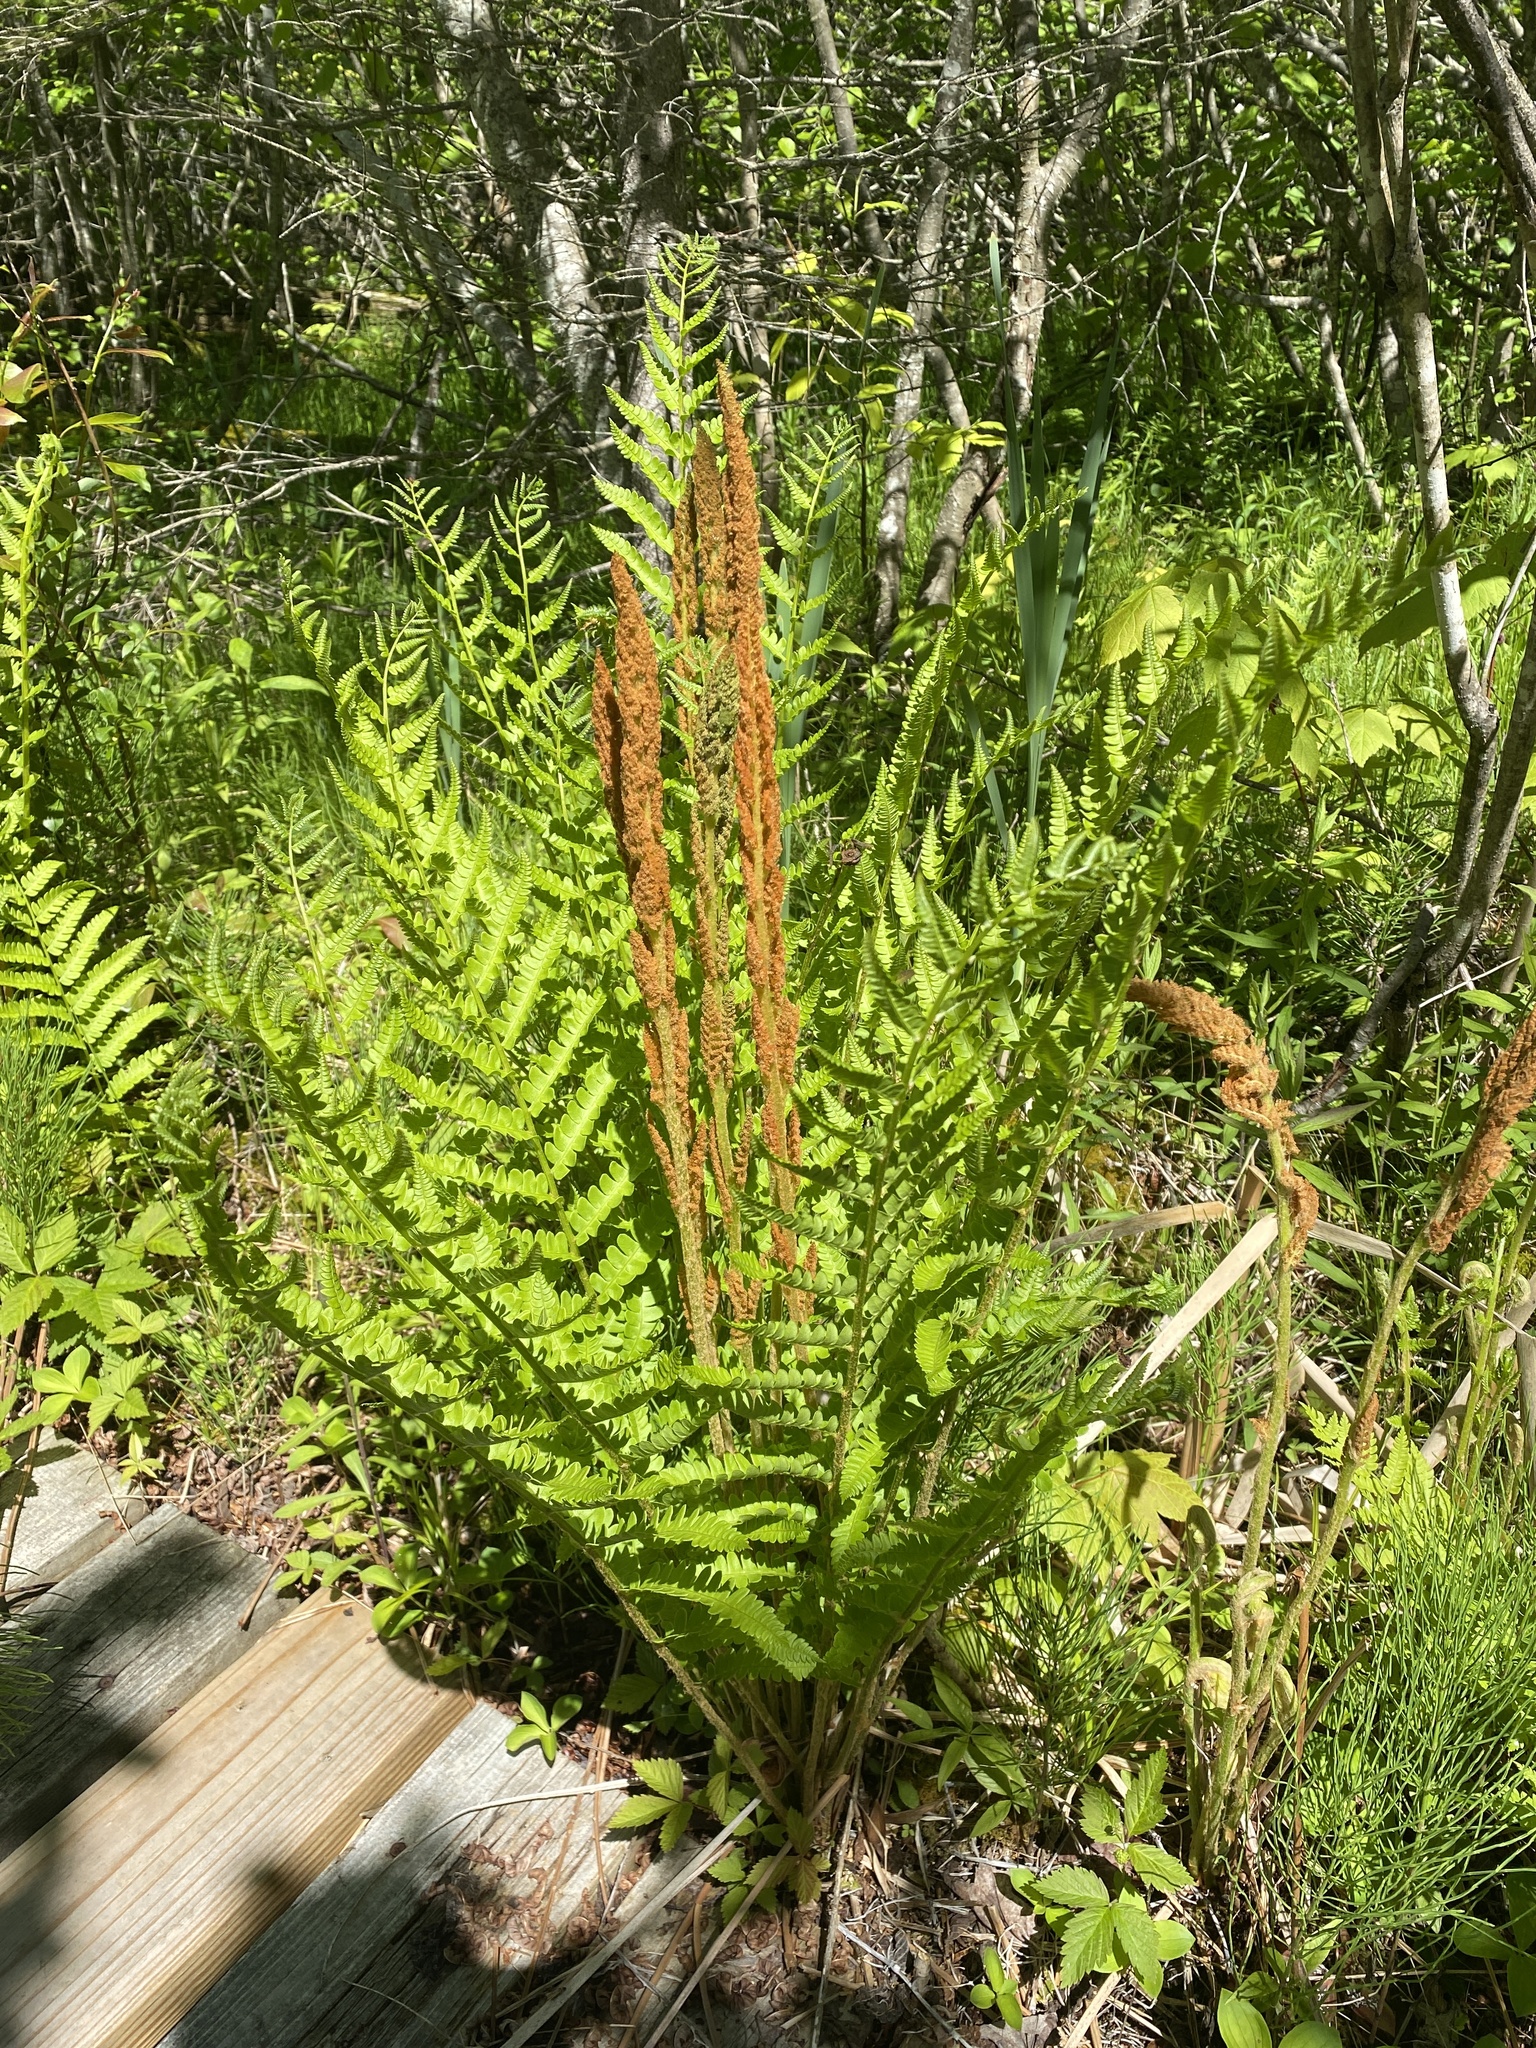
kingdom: Plantae
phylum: Tracheophyta
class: Polypodiopsida
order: Osmundales
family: Osmundaceae
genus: Osmundastrum
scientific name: Osmundastrum cinnamomeum
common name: Cinnamon fern
